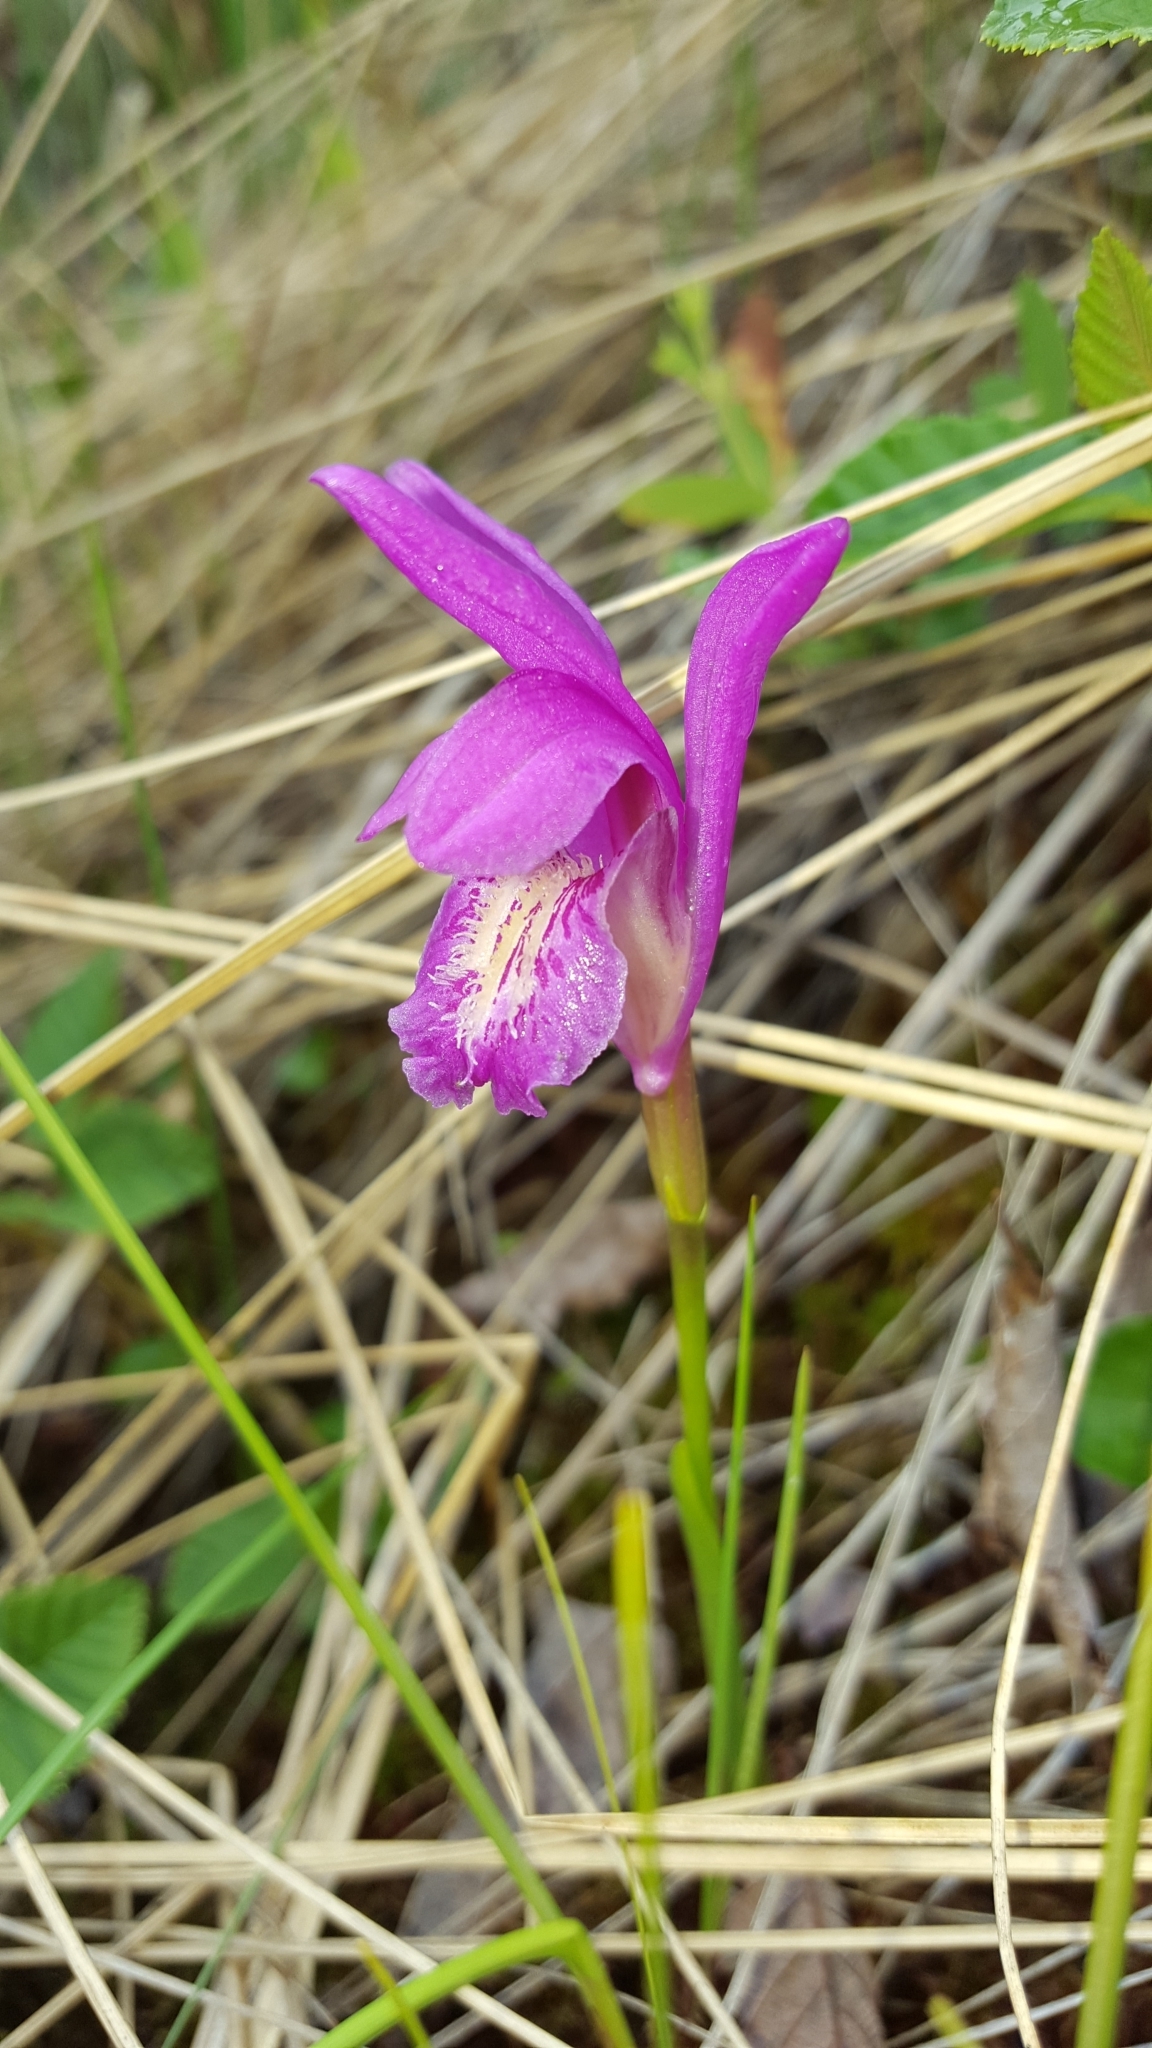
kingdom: Plantae
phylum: Tracheophyta
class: Liliopsida
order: Asparagales
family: Orchidaceae
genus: Arethusa
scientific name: Arethusa bulbosa
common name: Arethusa
